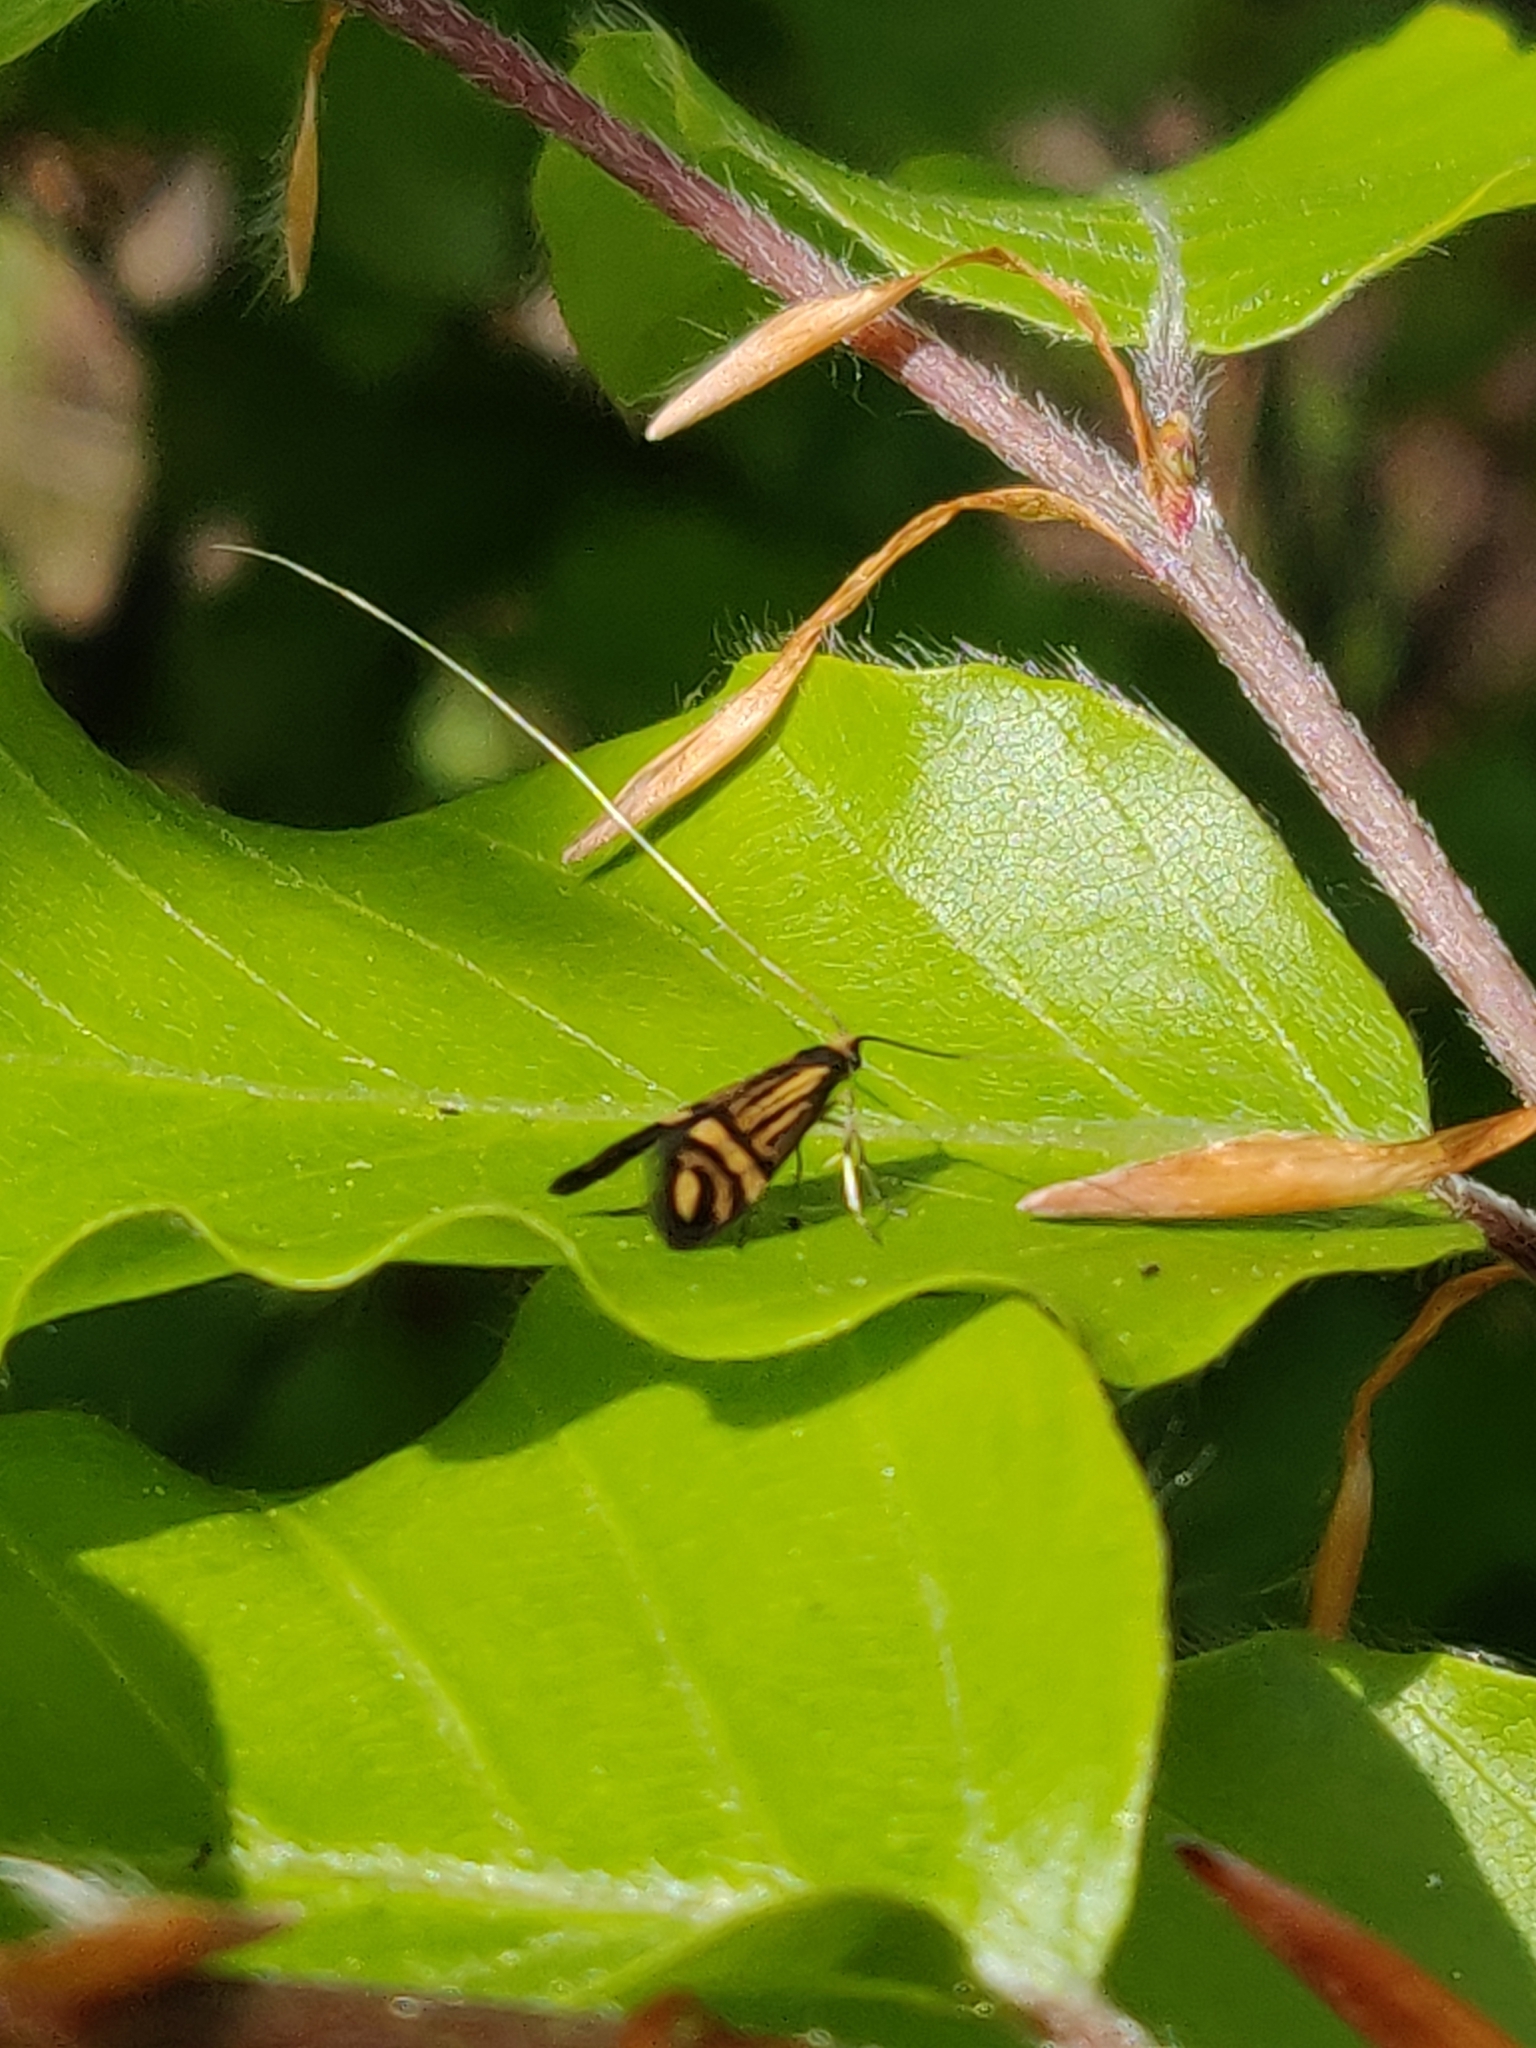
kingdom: Animalia
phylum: Arthropoda
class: Insecta
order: Lepidoptera
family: Adelidae
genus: Nemophora
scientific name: Nemophora ochsenheimerella
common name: Ochsenheimer’s long-horn
